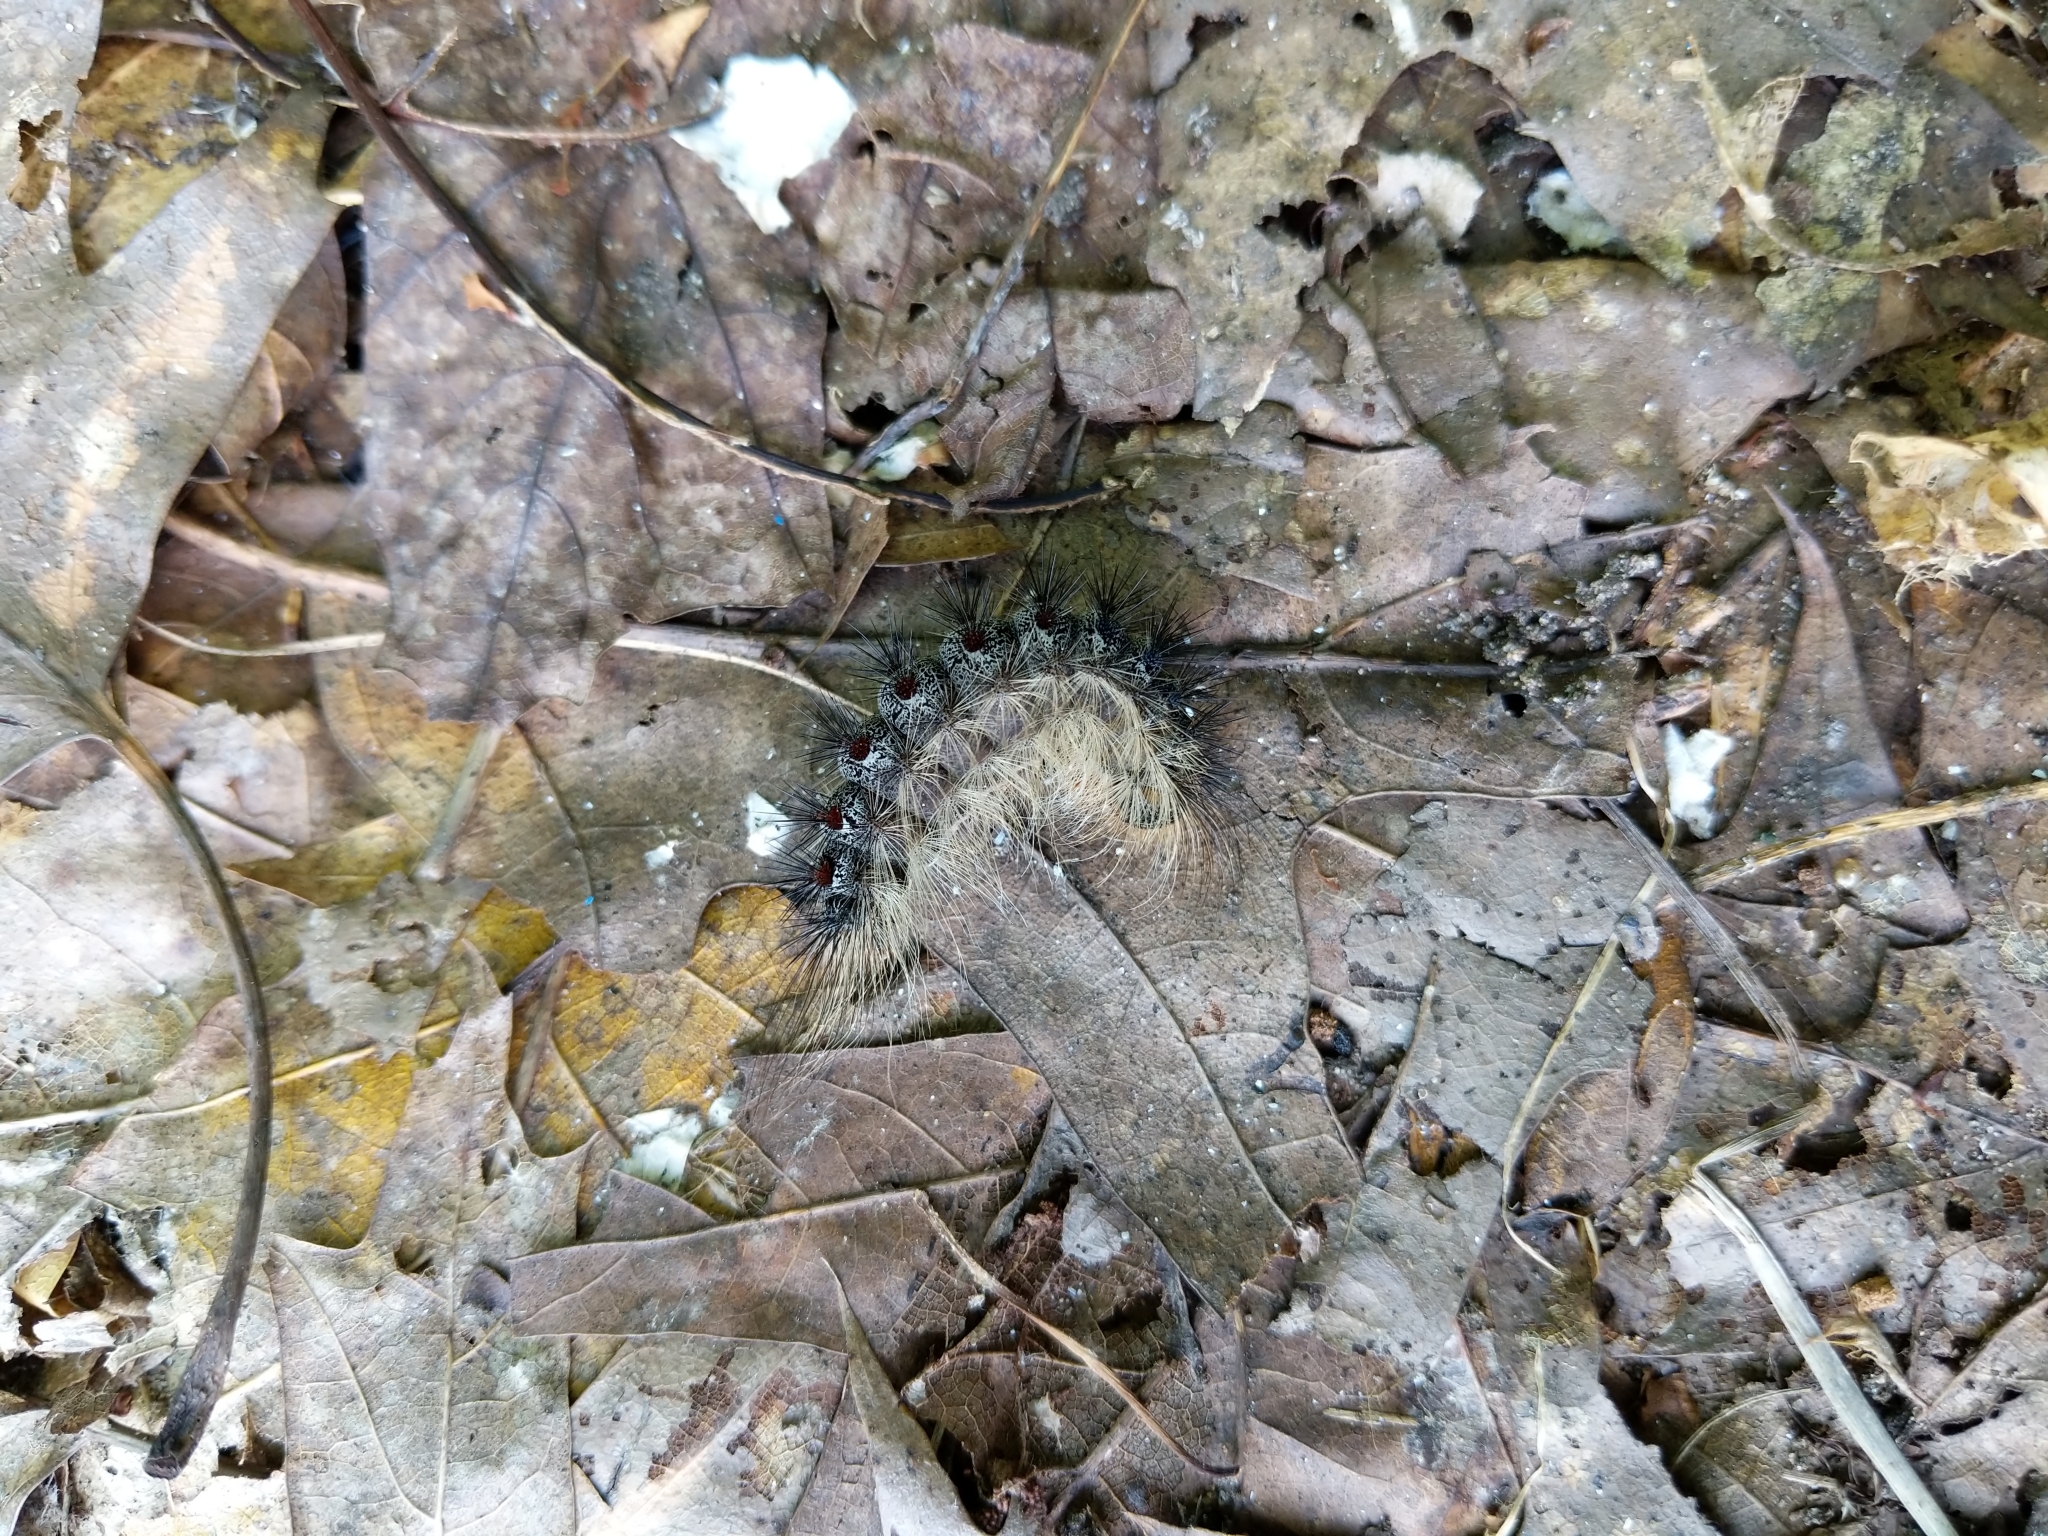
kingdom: Animalia
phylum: Arthropoda
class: Insecta
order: Lepidoptera
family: Erebidae
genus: Lymantria
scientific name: Lymantria dispar
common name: Gypsy moth
